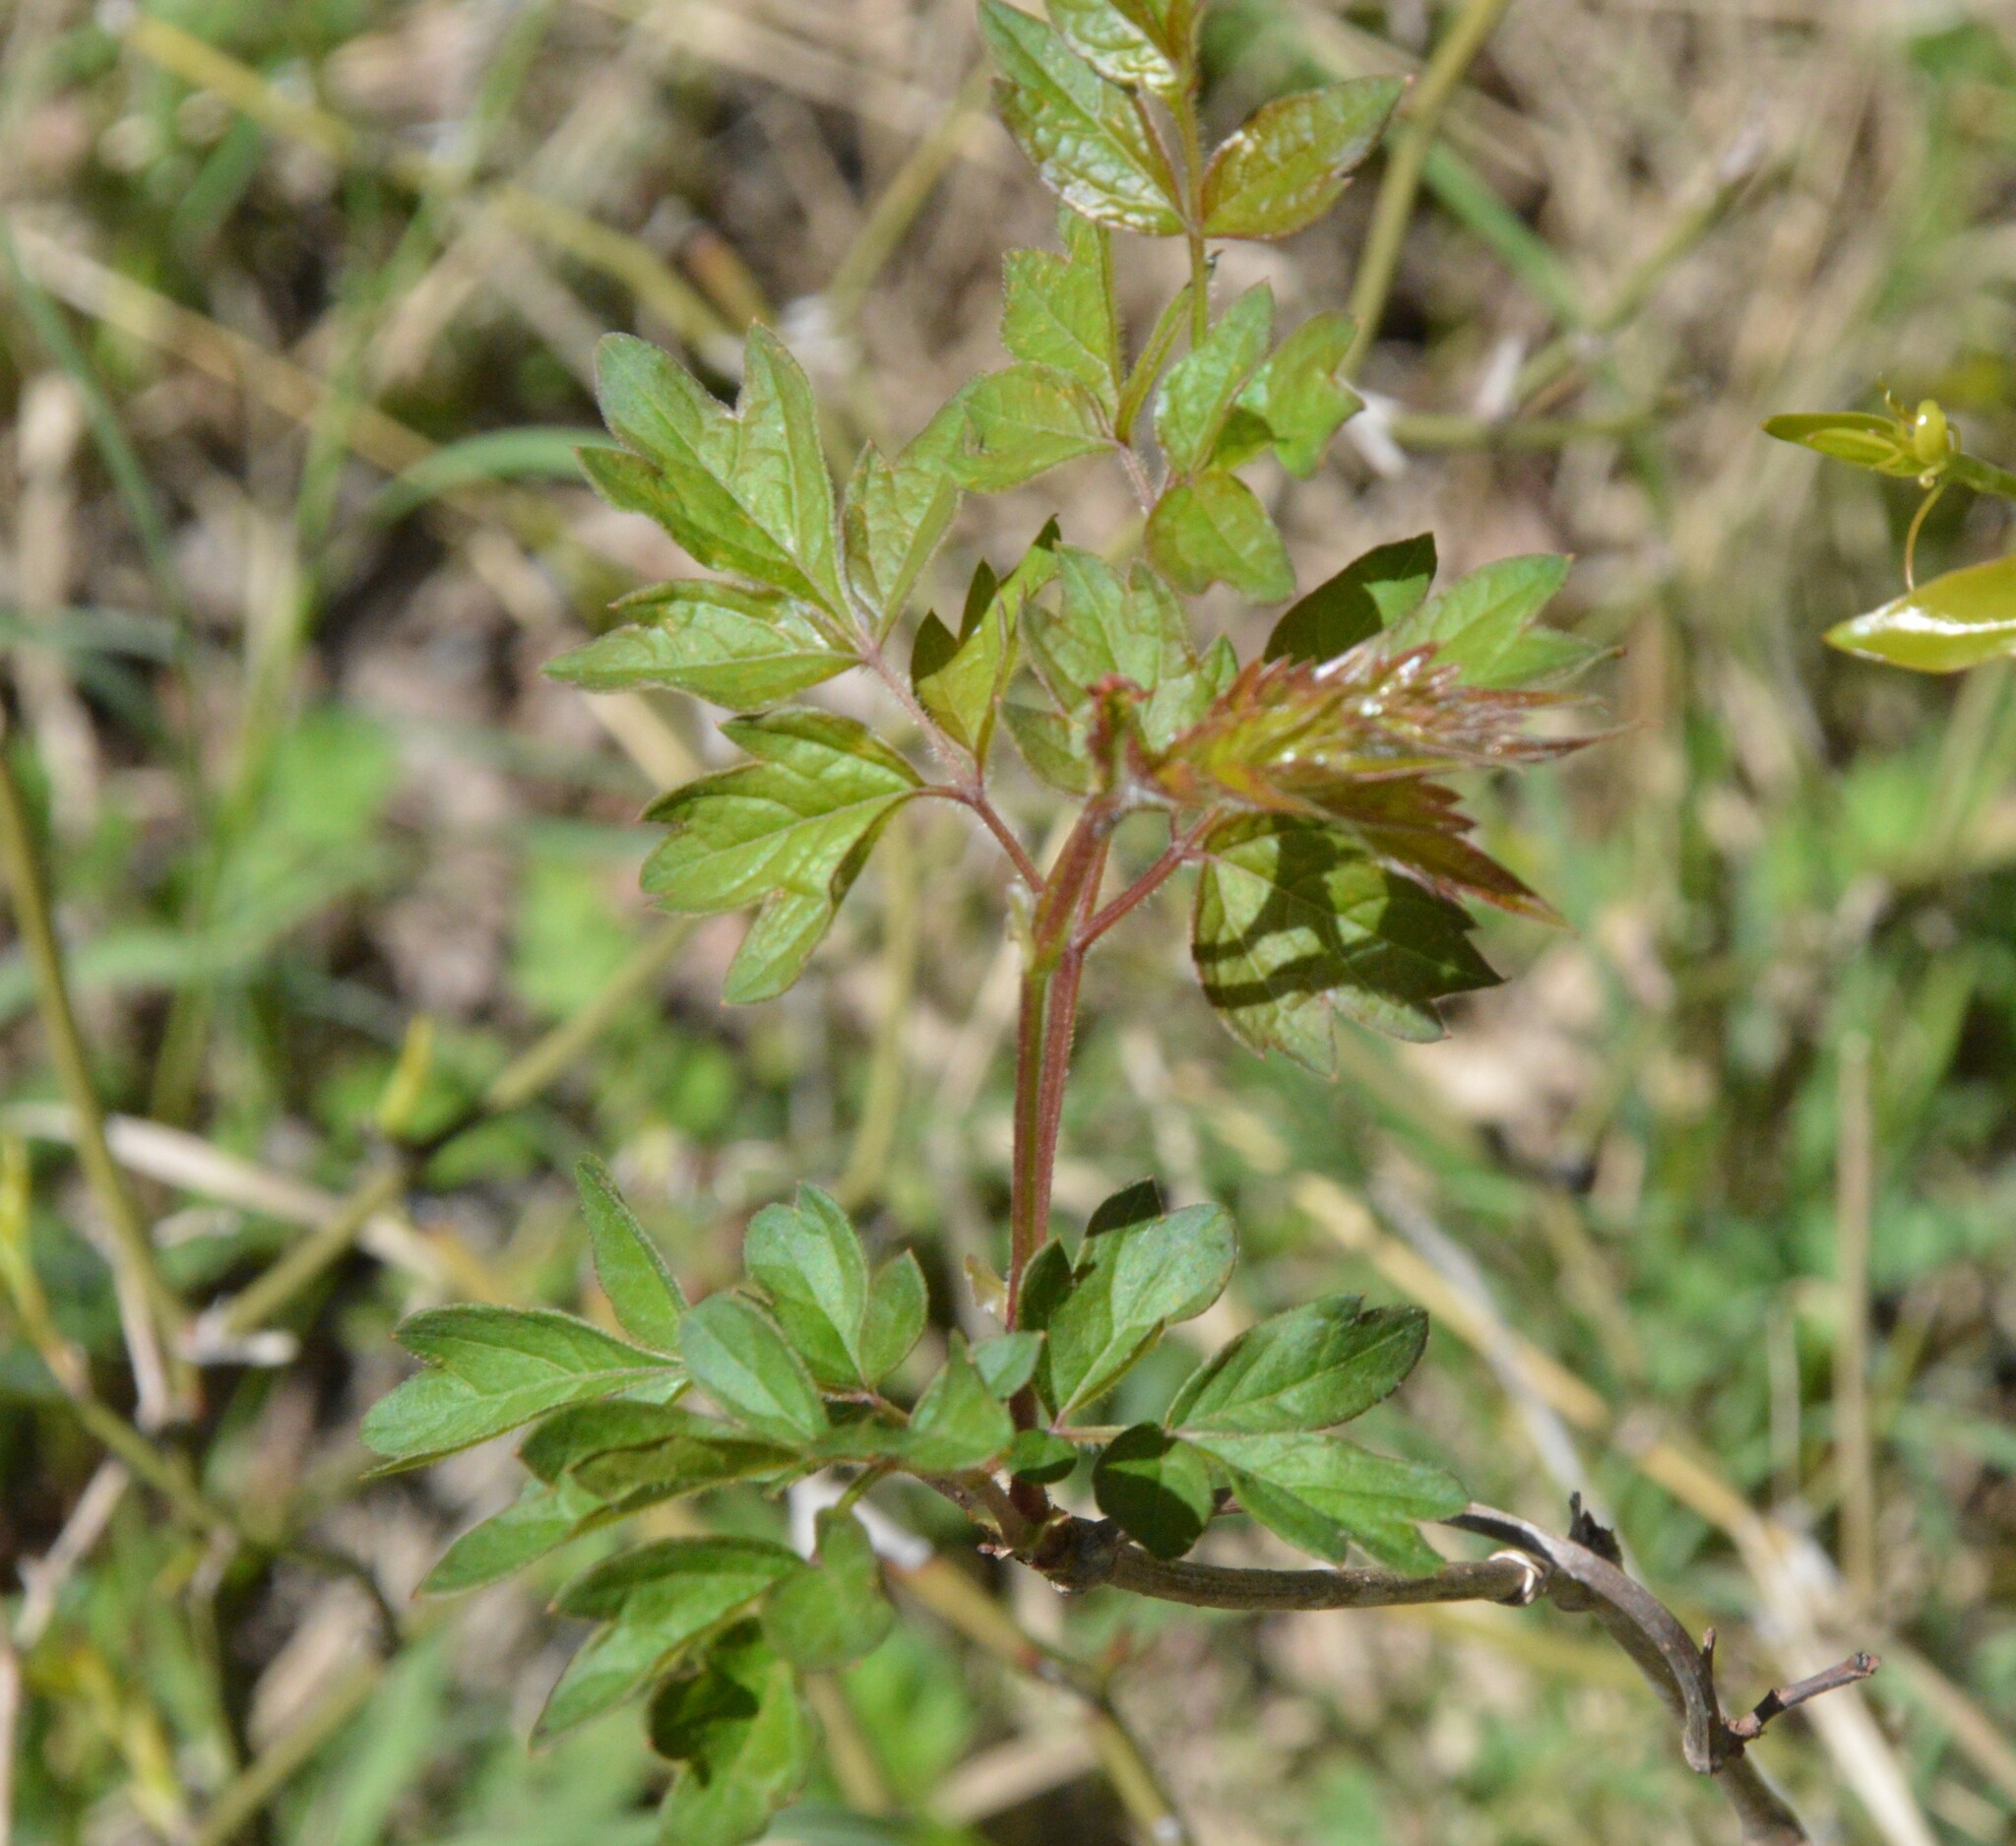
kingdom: Plantae
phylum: Tracheophyta
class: Magnoliopsida
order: Vitales
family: Vitaceae
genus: Nekemias
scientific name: Nekemias arborea
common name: Peppervine
